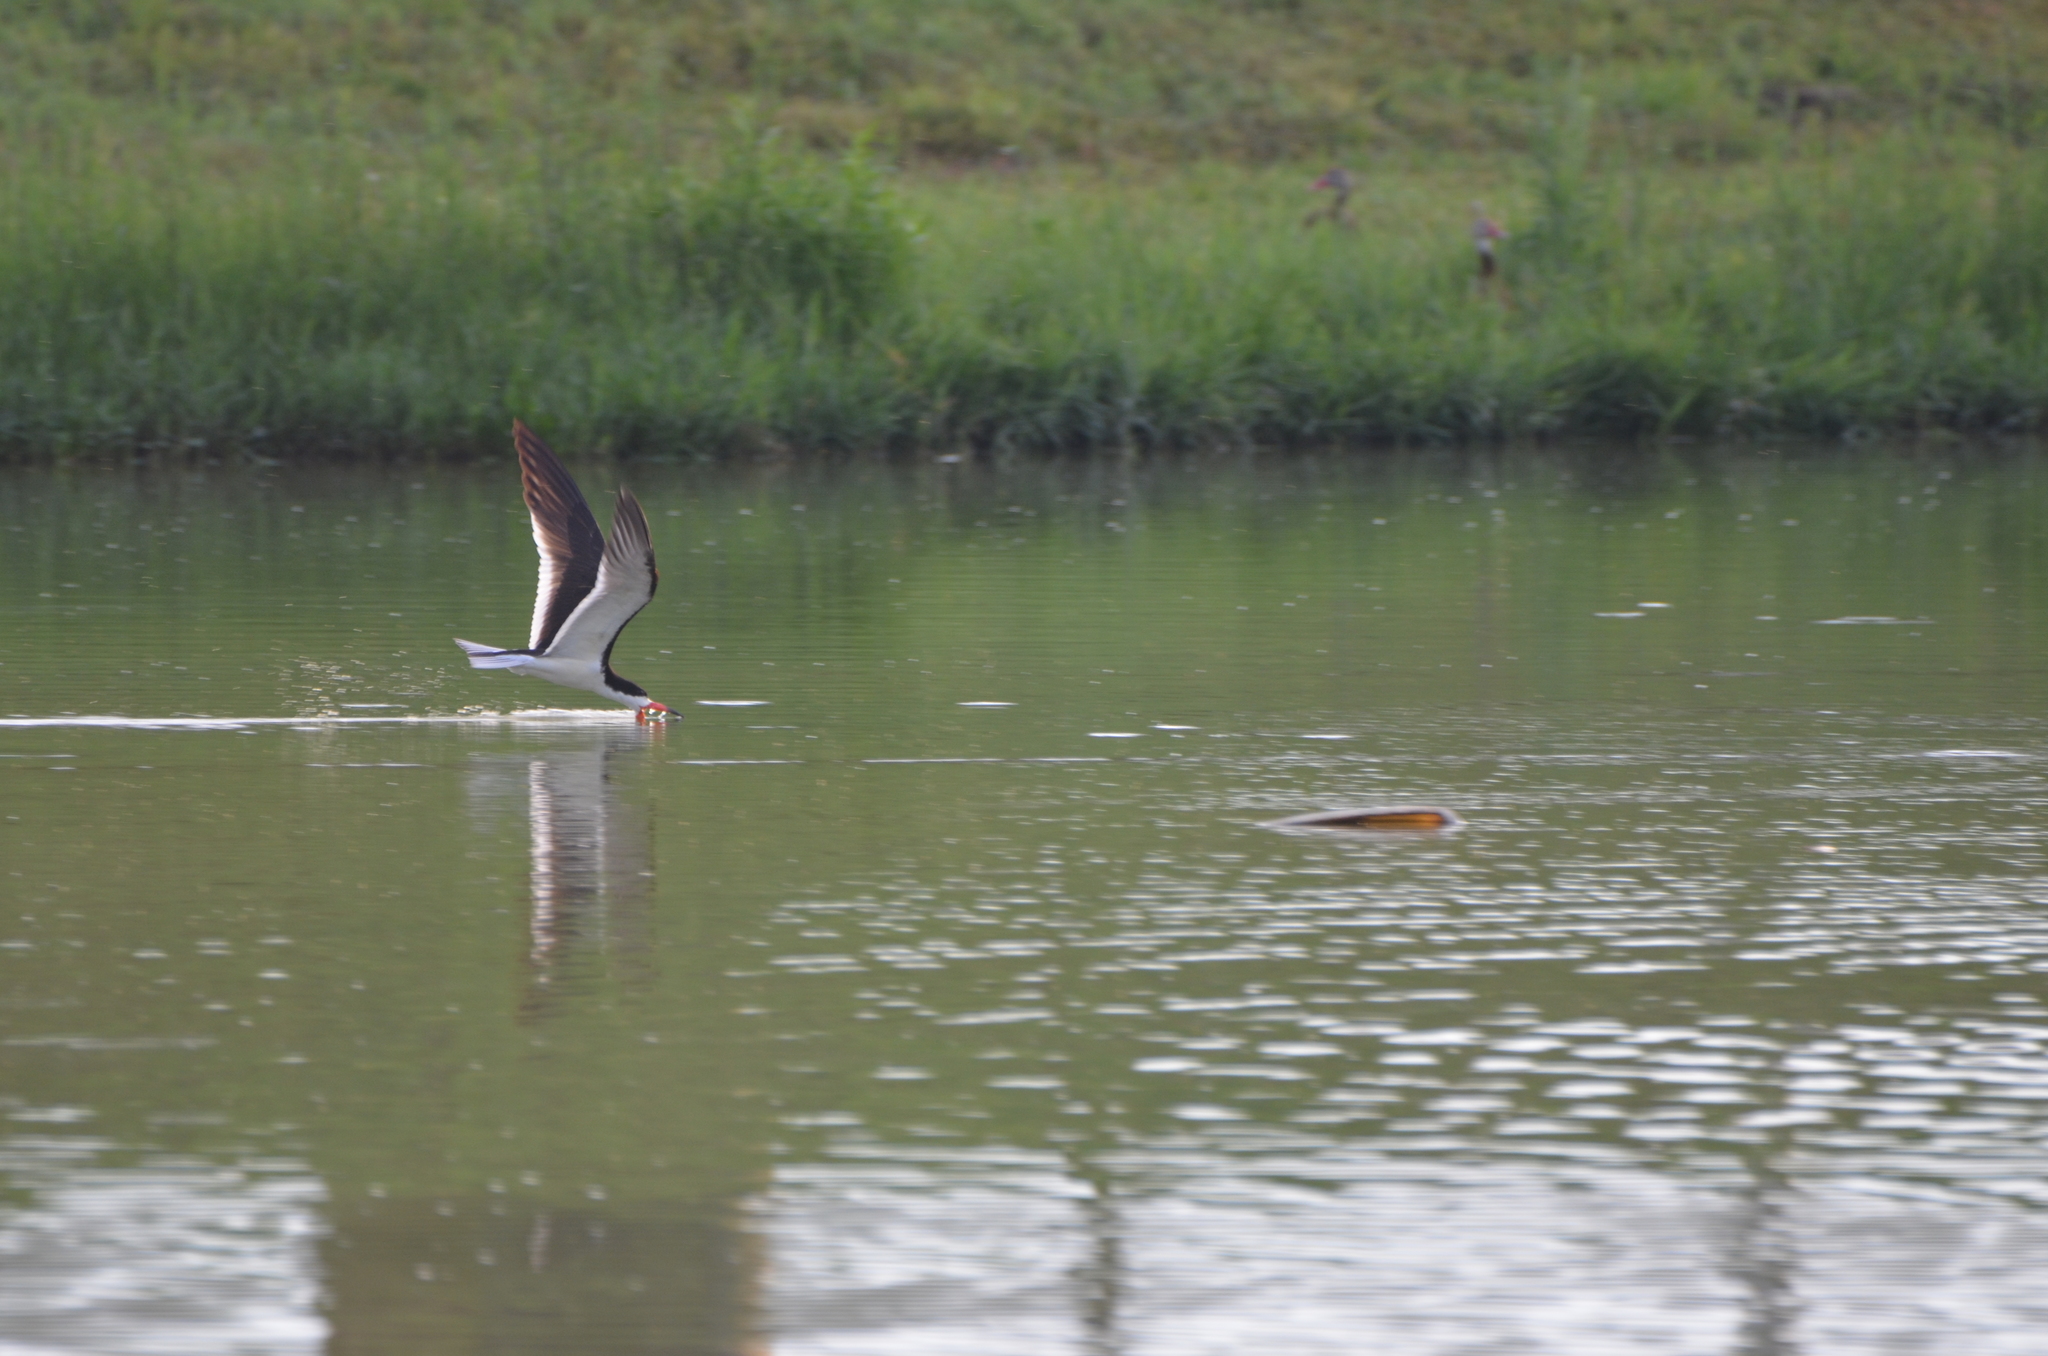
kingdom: Animalia
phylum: Chordata
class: Aves
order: Charadriiformes
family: Laridae
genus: Rynchops
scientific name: Rynchops niger
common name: Black skimmer
